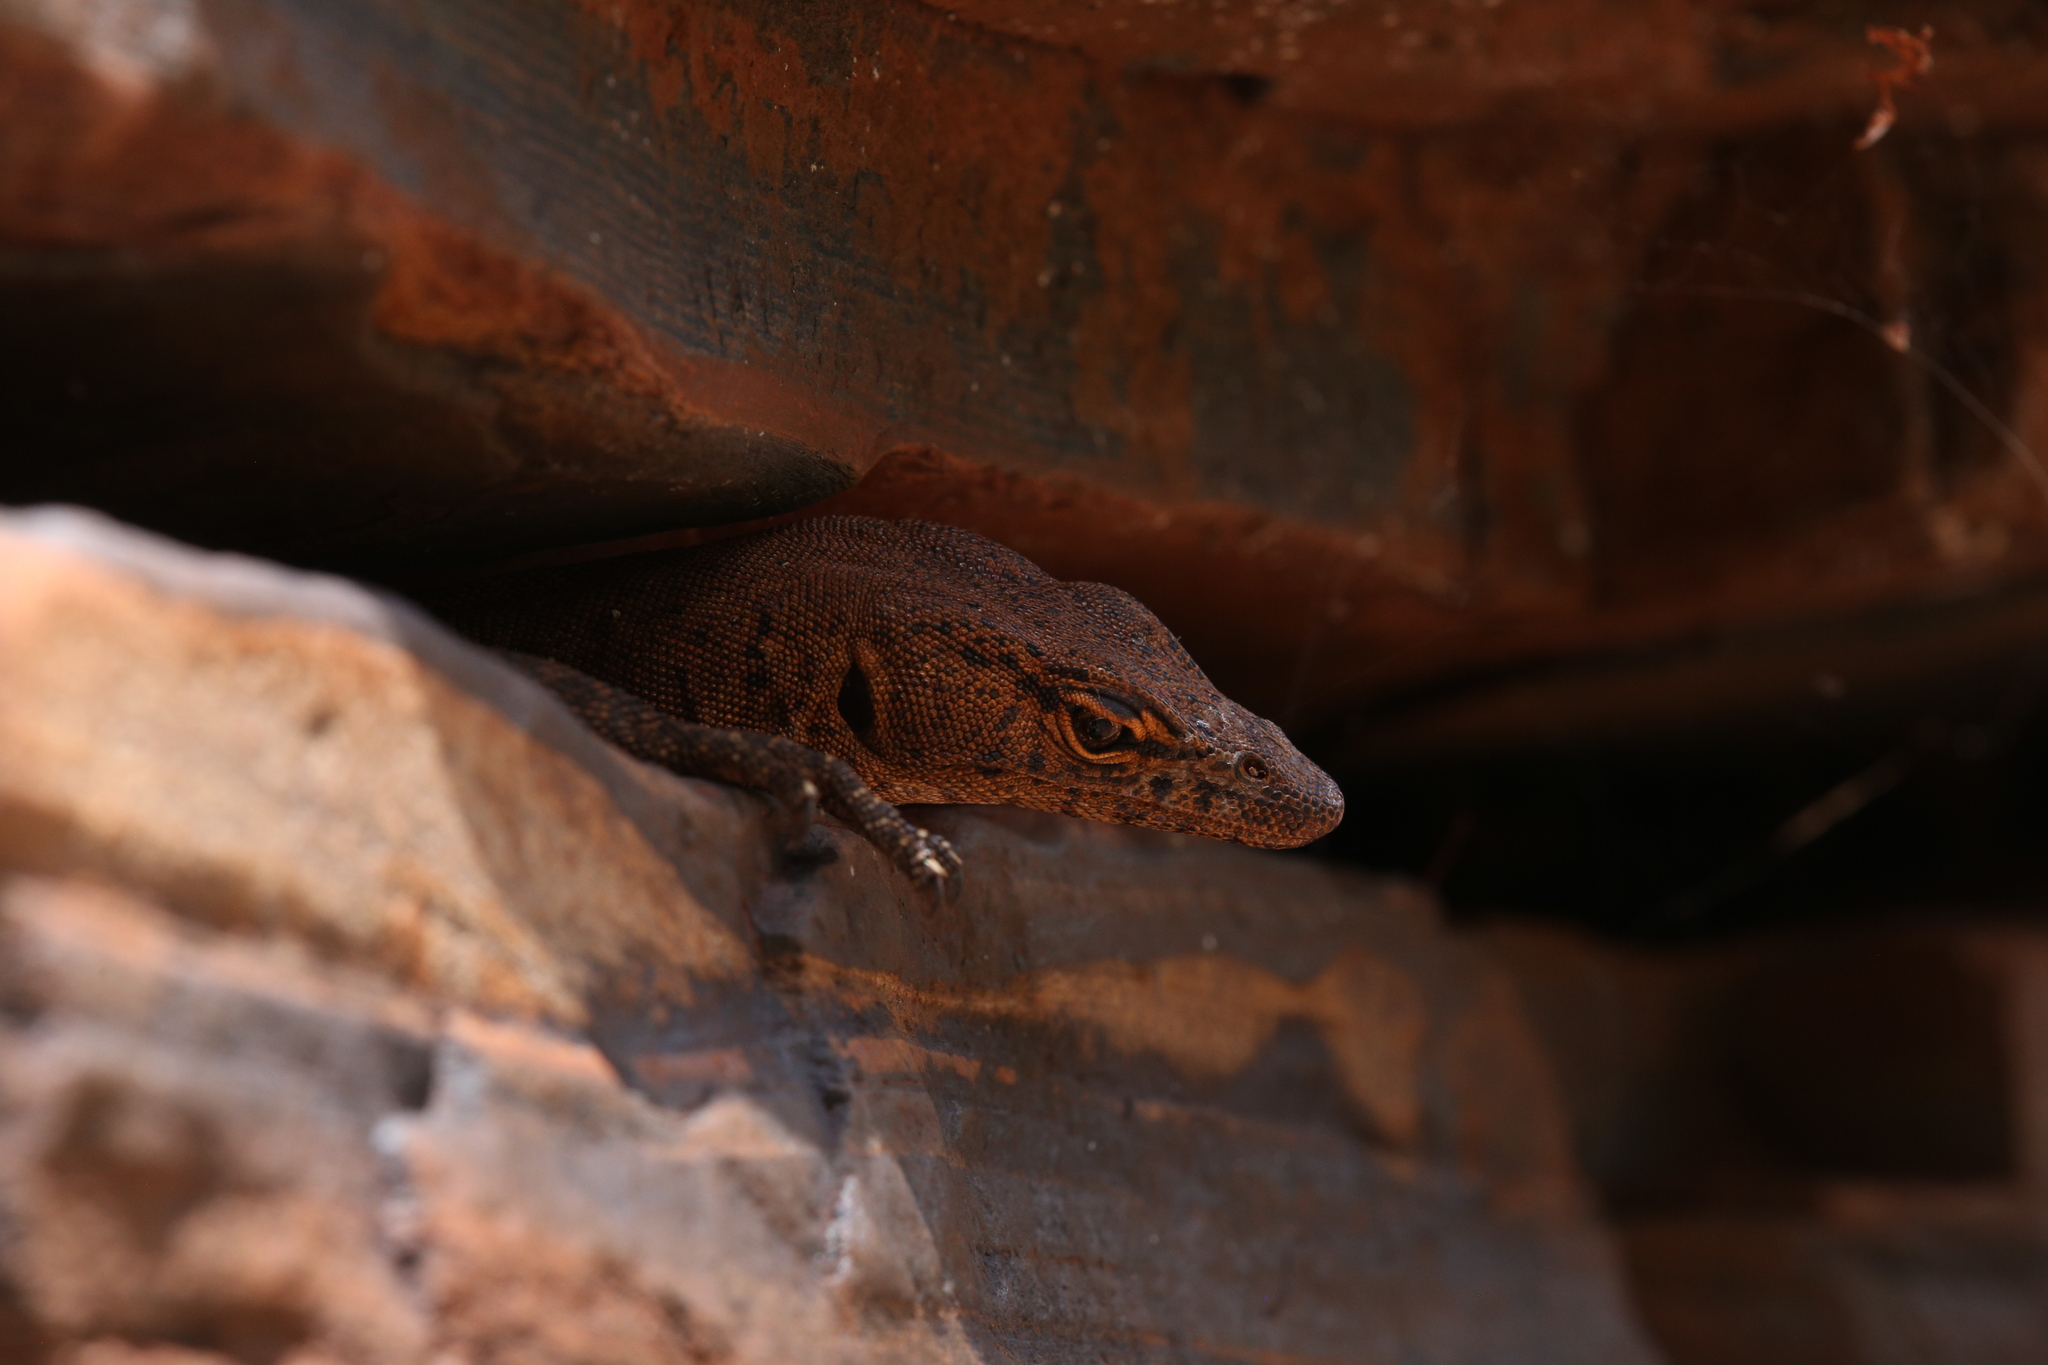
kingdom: Animalia
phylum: Chordata
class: Squamata
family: Varanidae
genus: Varanus
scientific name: Varanus hamersleyensis
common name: Southern pilbara rock goanna
